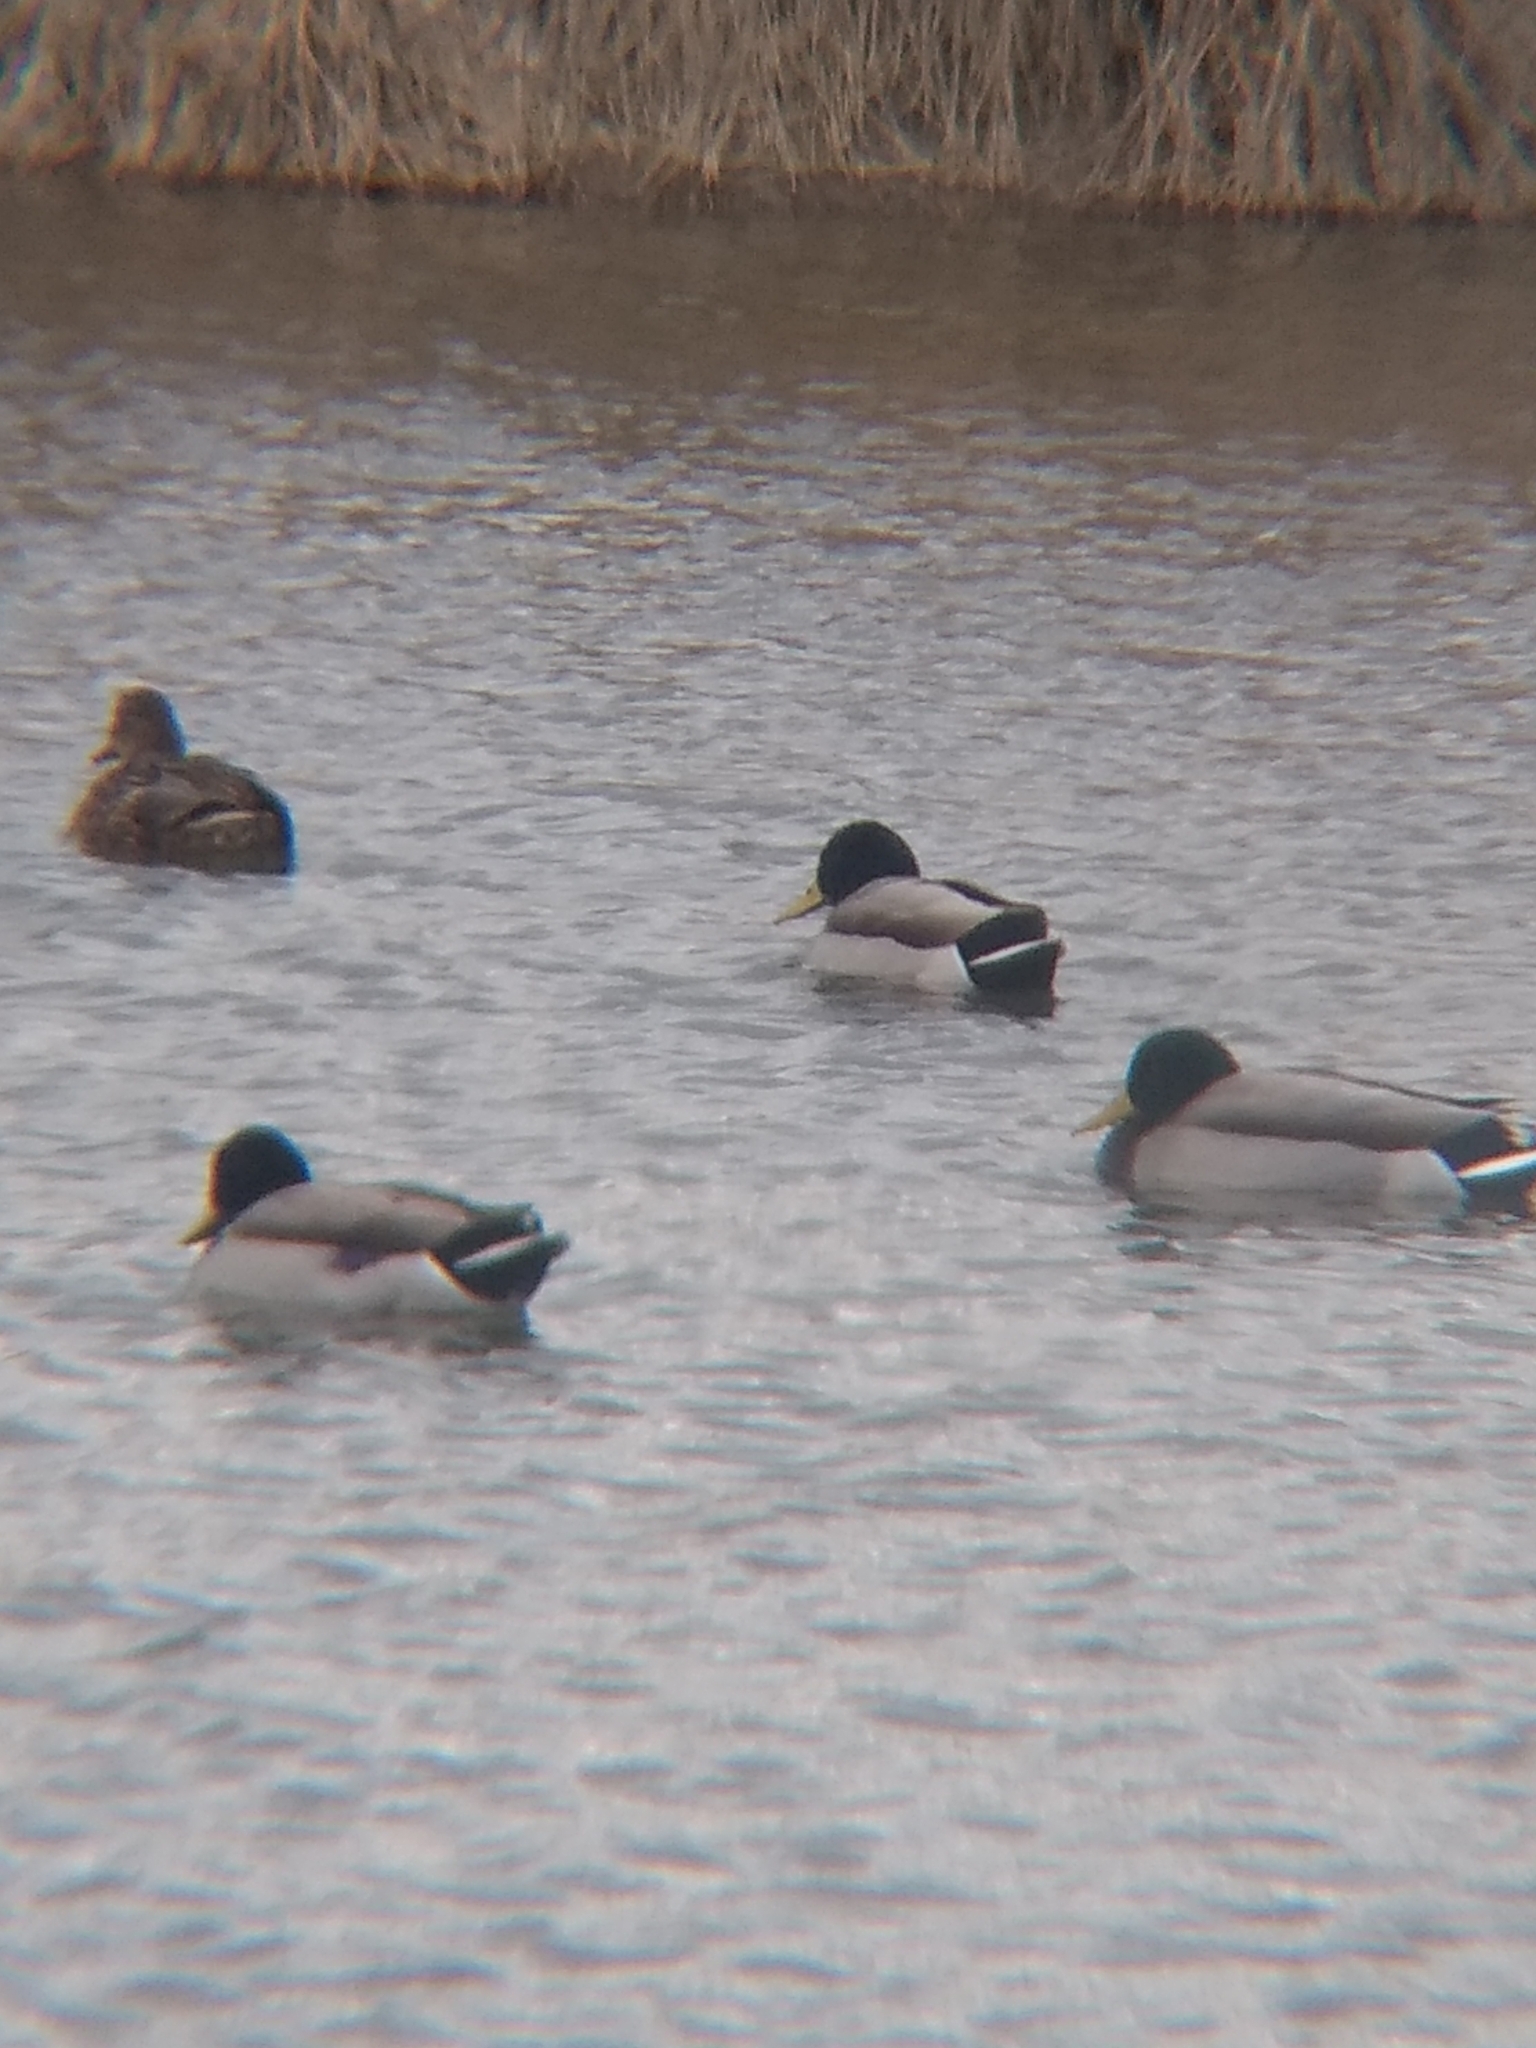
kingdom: Animalia
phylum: Chordata
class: Aves
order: Anseriformes
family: Anatidae
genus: Anas
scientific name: Anas platyrhynchos
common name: Mallard
